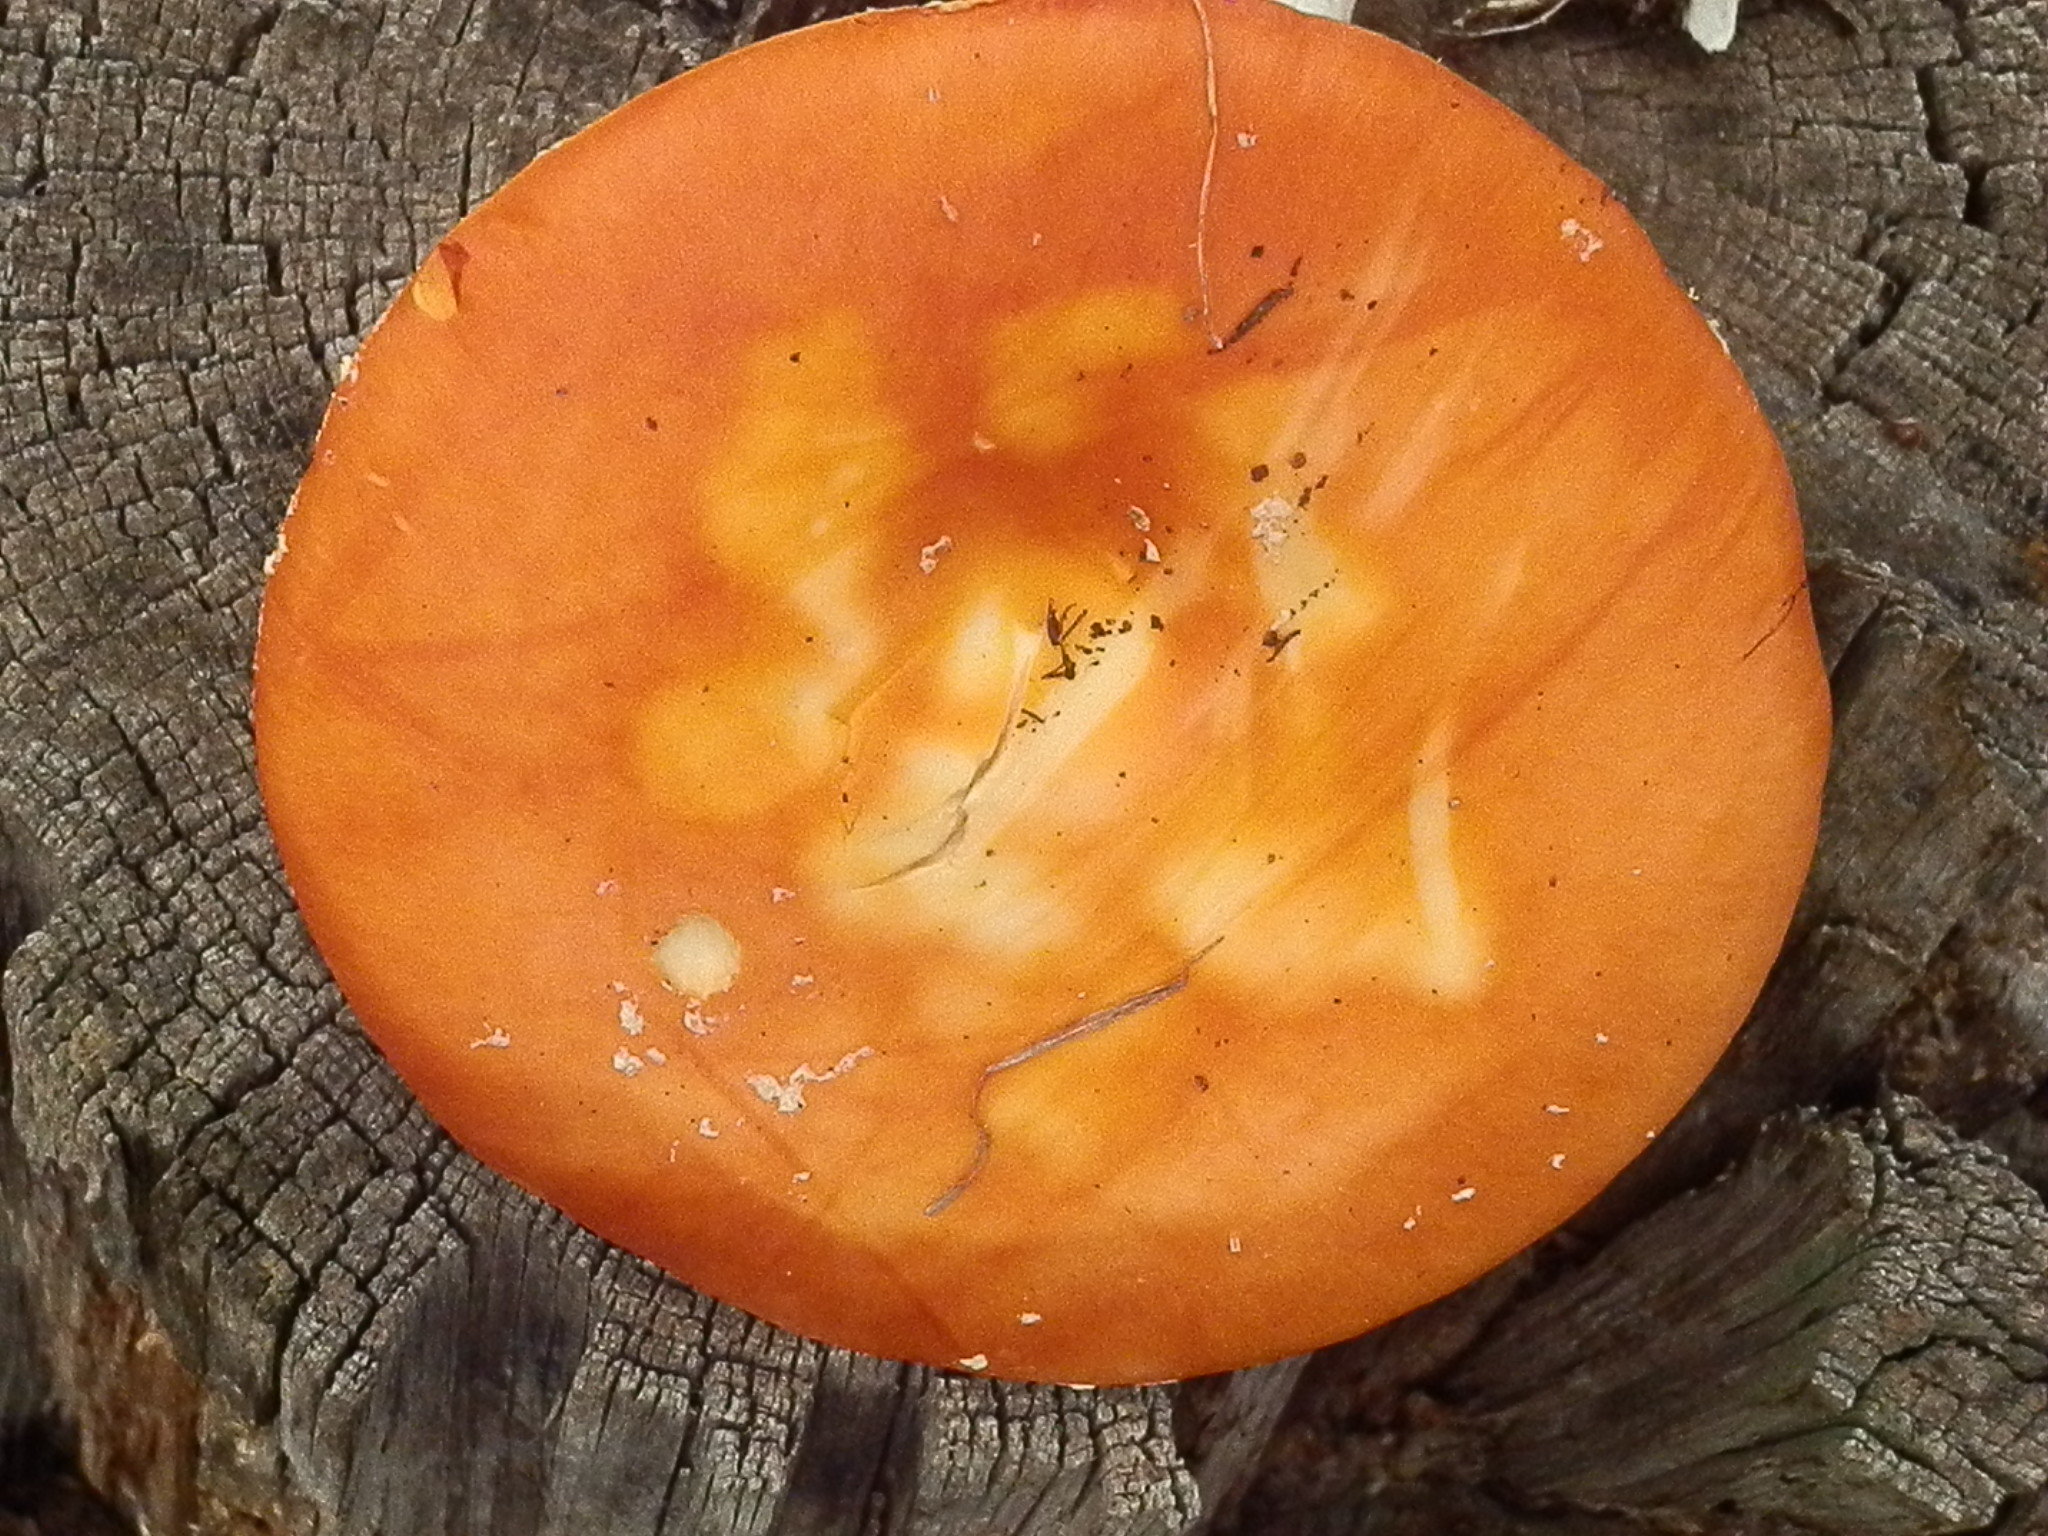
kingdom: Fungi
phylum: Basidiomycota
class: Agaricomycetes
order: Agaricales
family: Amanitaceae
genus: Amanita
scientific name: Amanita muscaria
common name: Fly agaric
